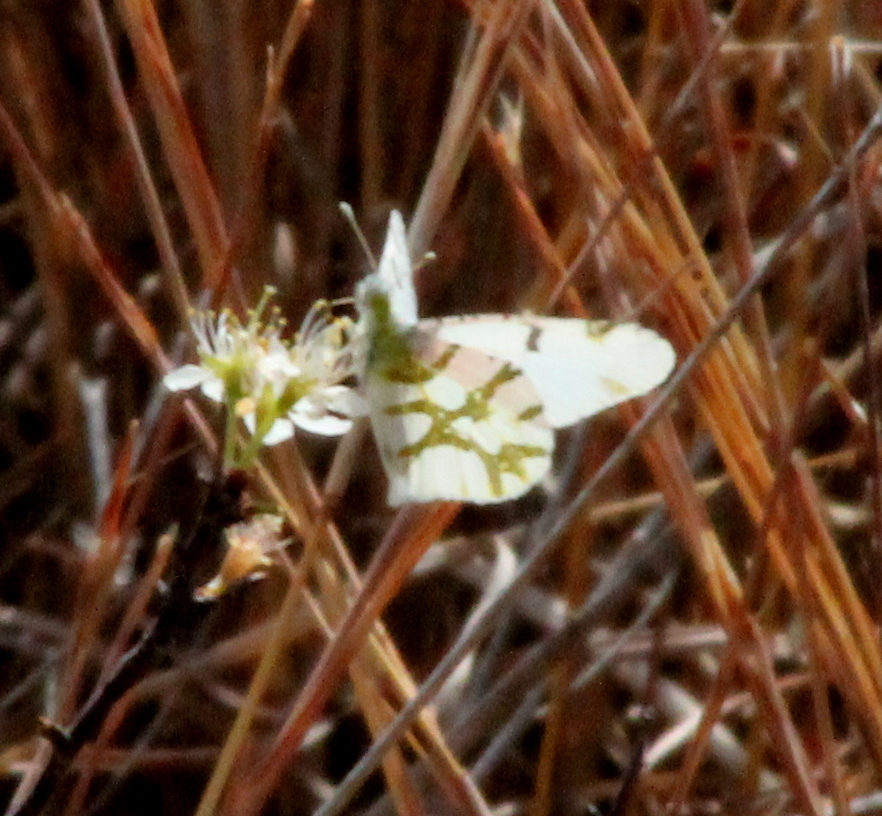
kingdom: Animalia
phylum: Arthropoda
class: Insecta
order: Lepidoptera
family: Pieridae
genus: Euchloe
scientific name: Euchloe olympia
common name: Olympia
